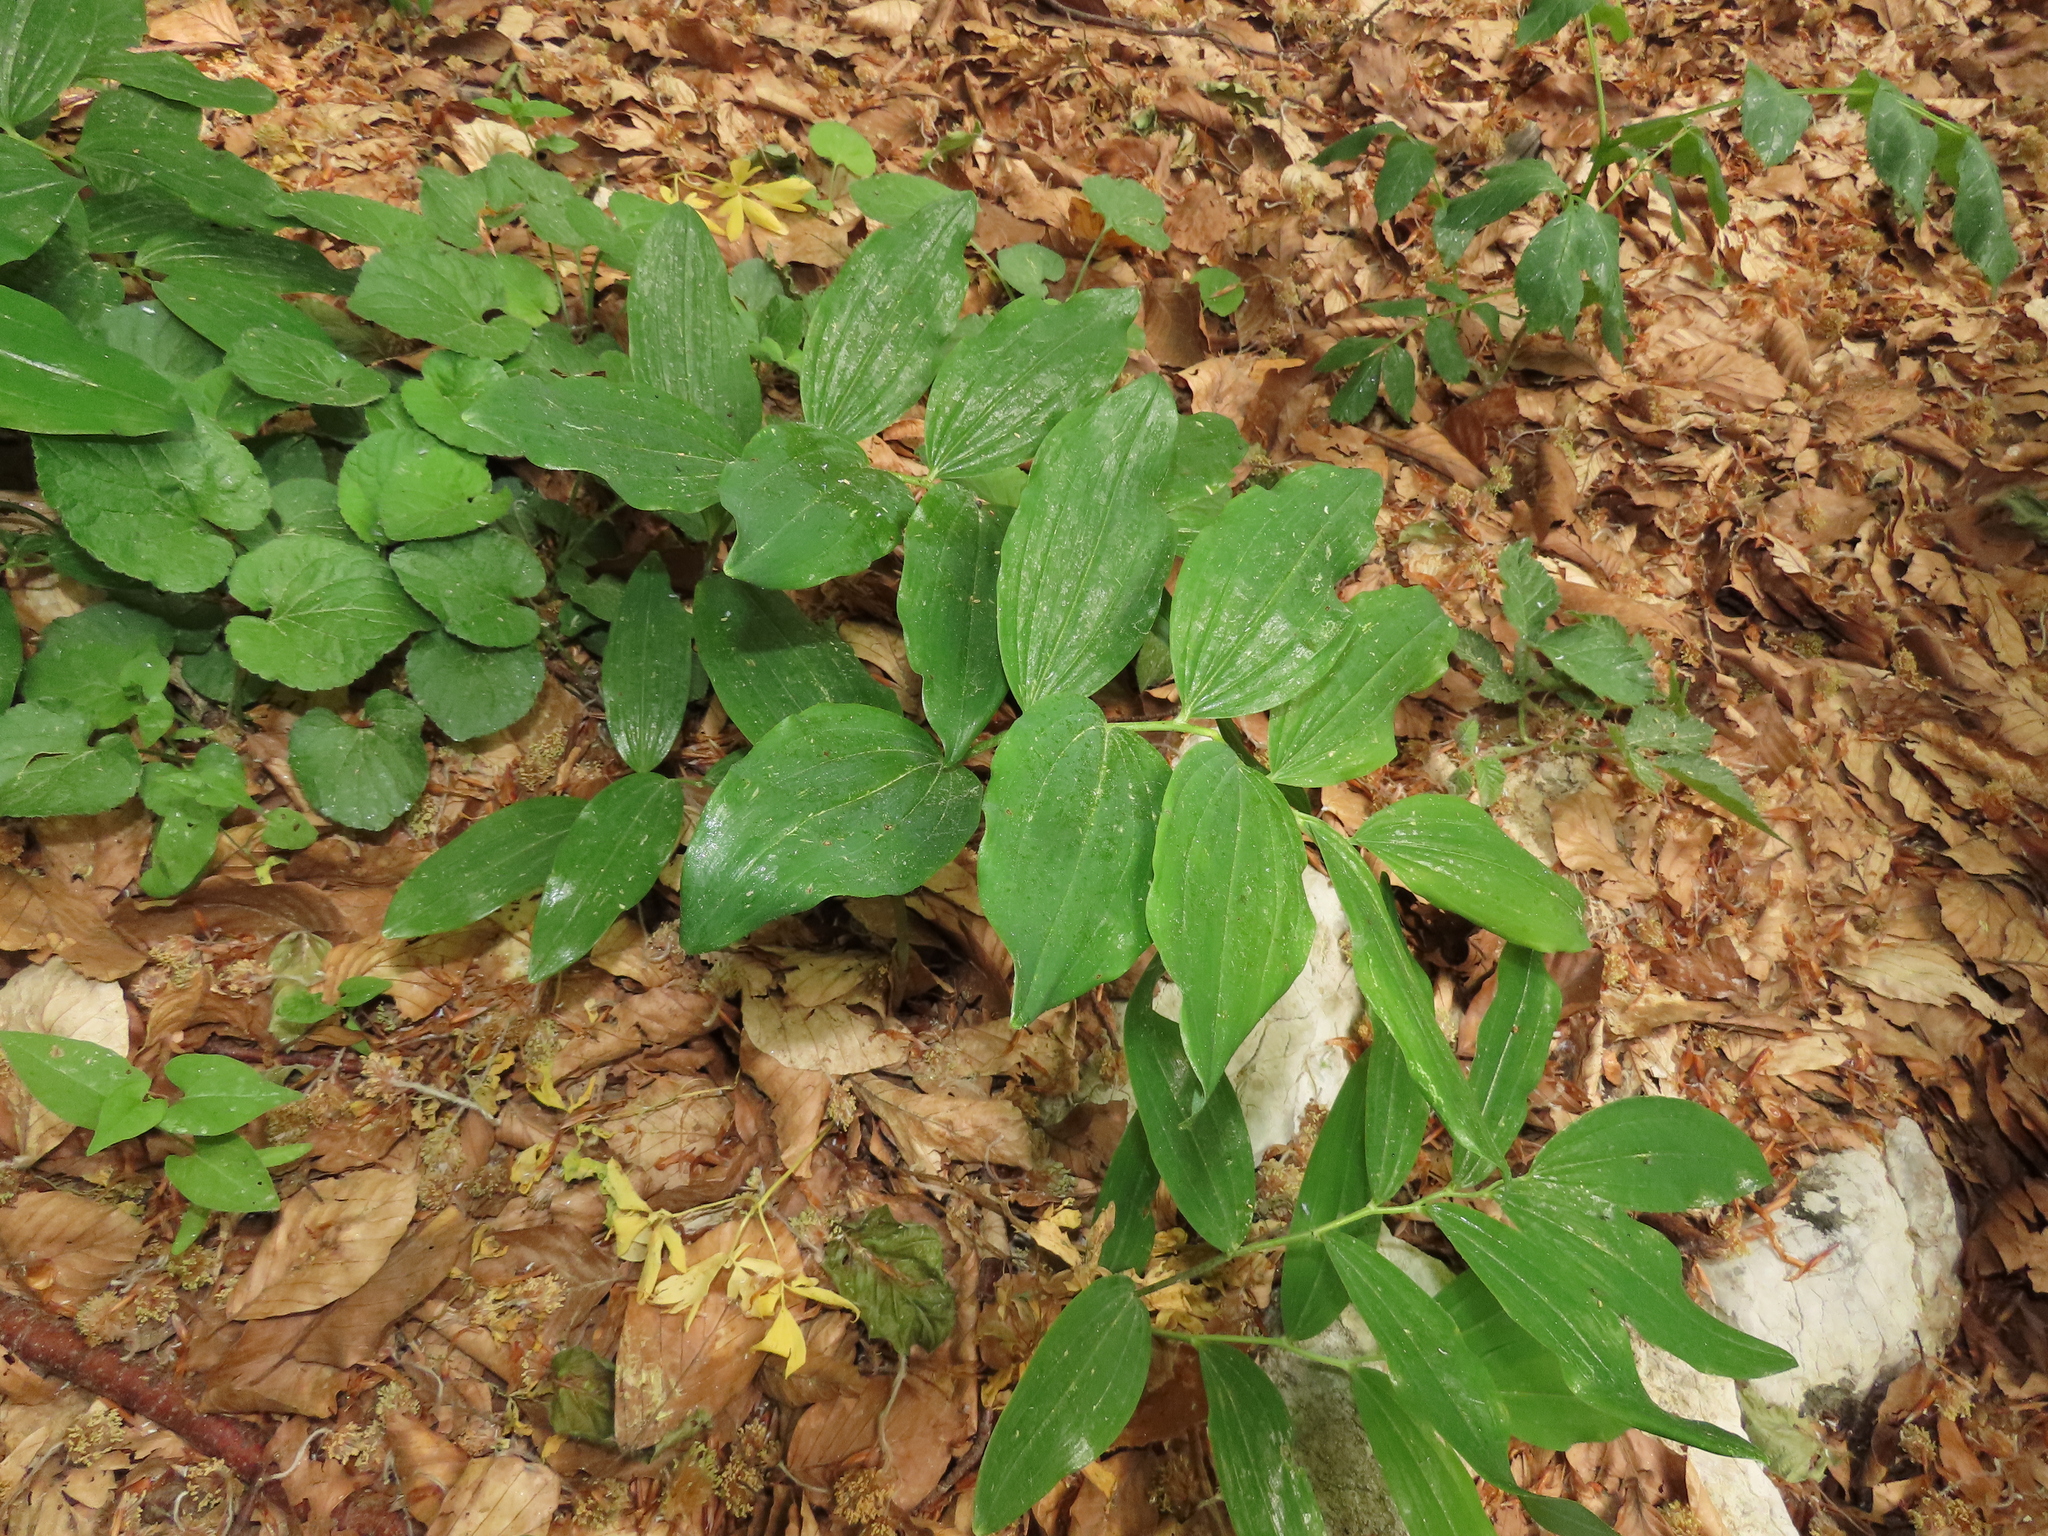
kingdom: Plantae
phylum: Tracheophyta
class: Liliopsida
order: Asparagales
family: Asparagaceae
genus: Polygonatum
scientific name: Polygonatum multiflorum
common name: Solomon's-seal
